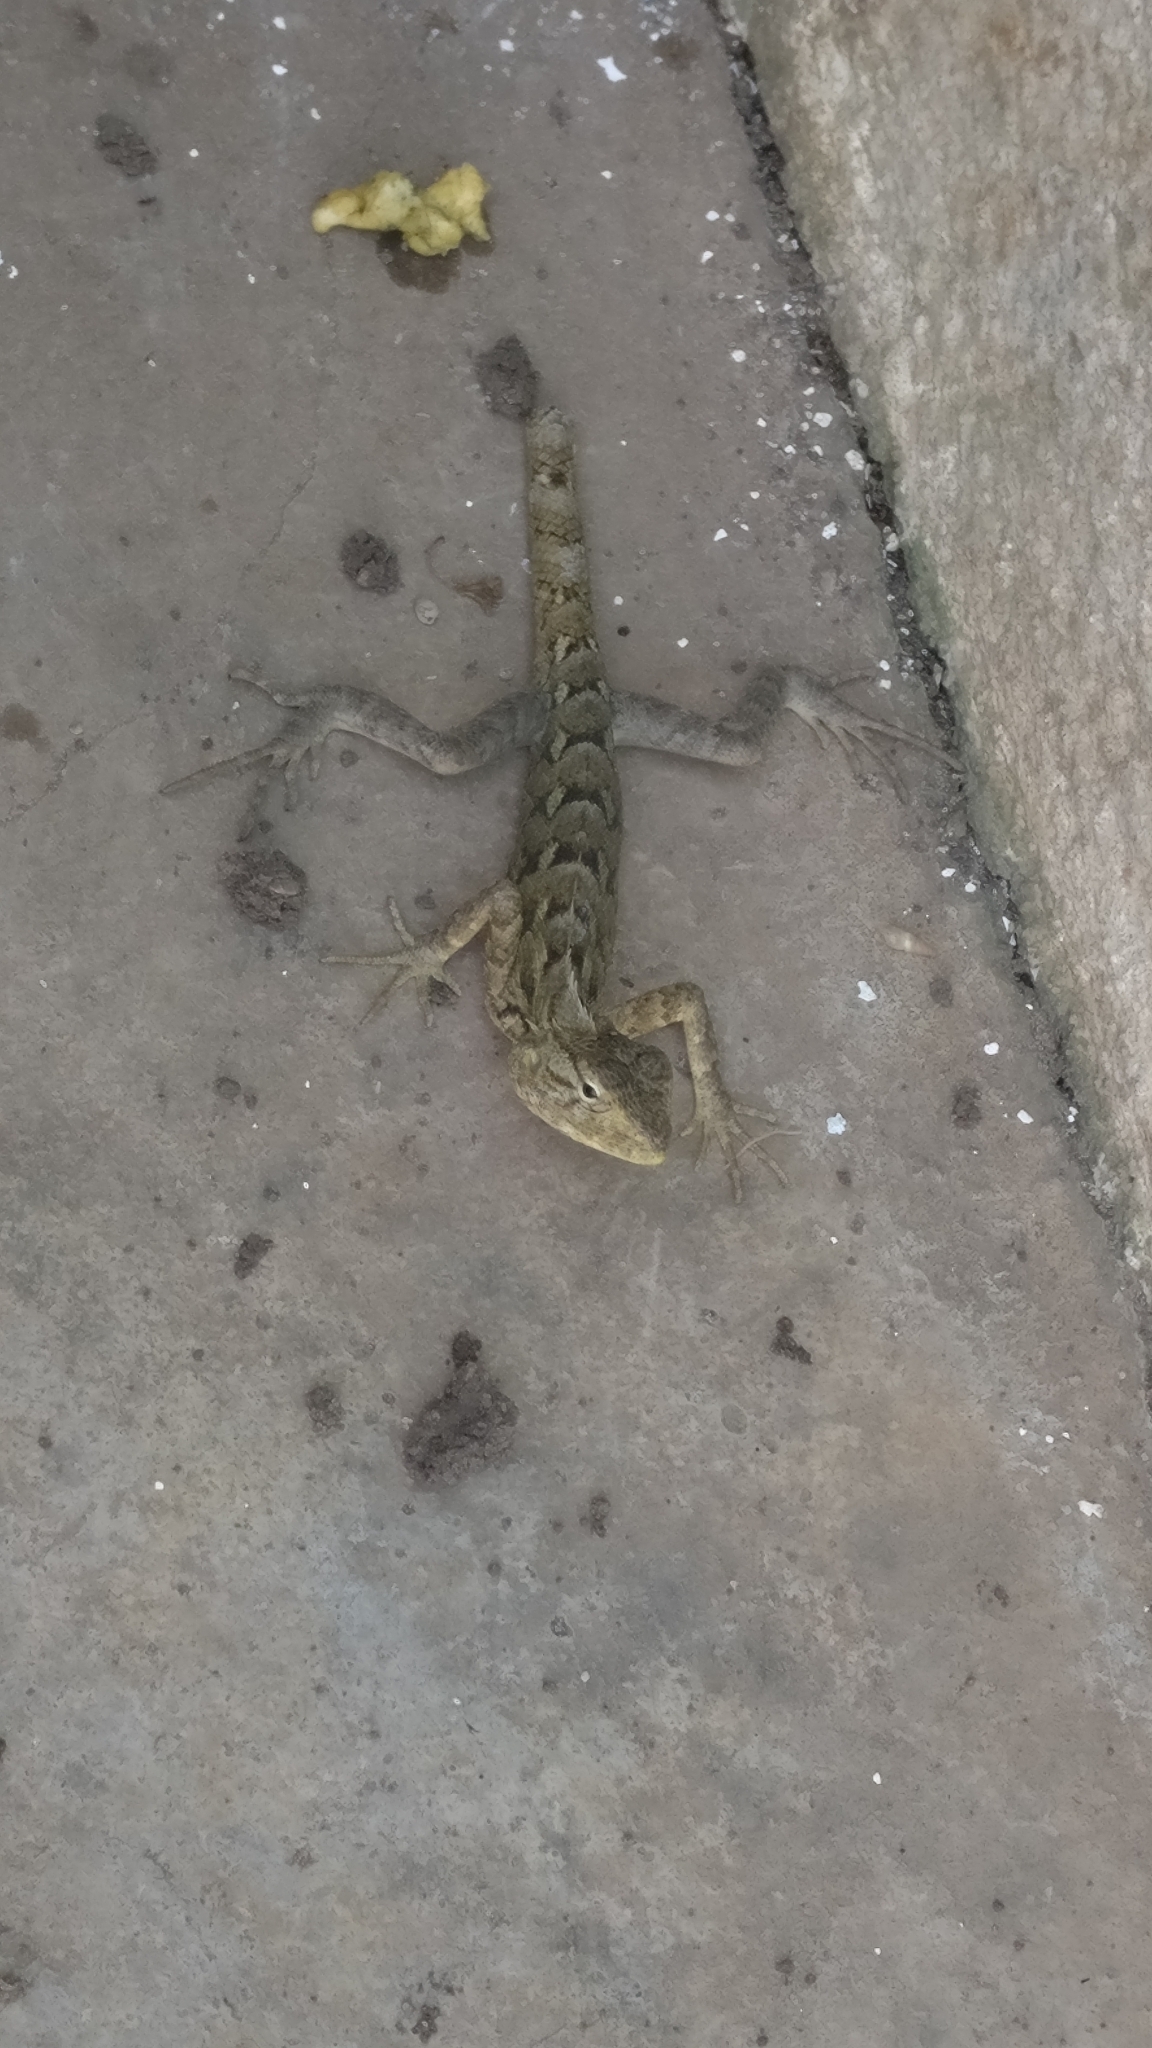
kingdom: Animalia
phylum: Chordata
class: Squamata
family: Agamidae
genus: Calotes
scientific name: Calotes versicolor
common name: Oriental garden lizard
